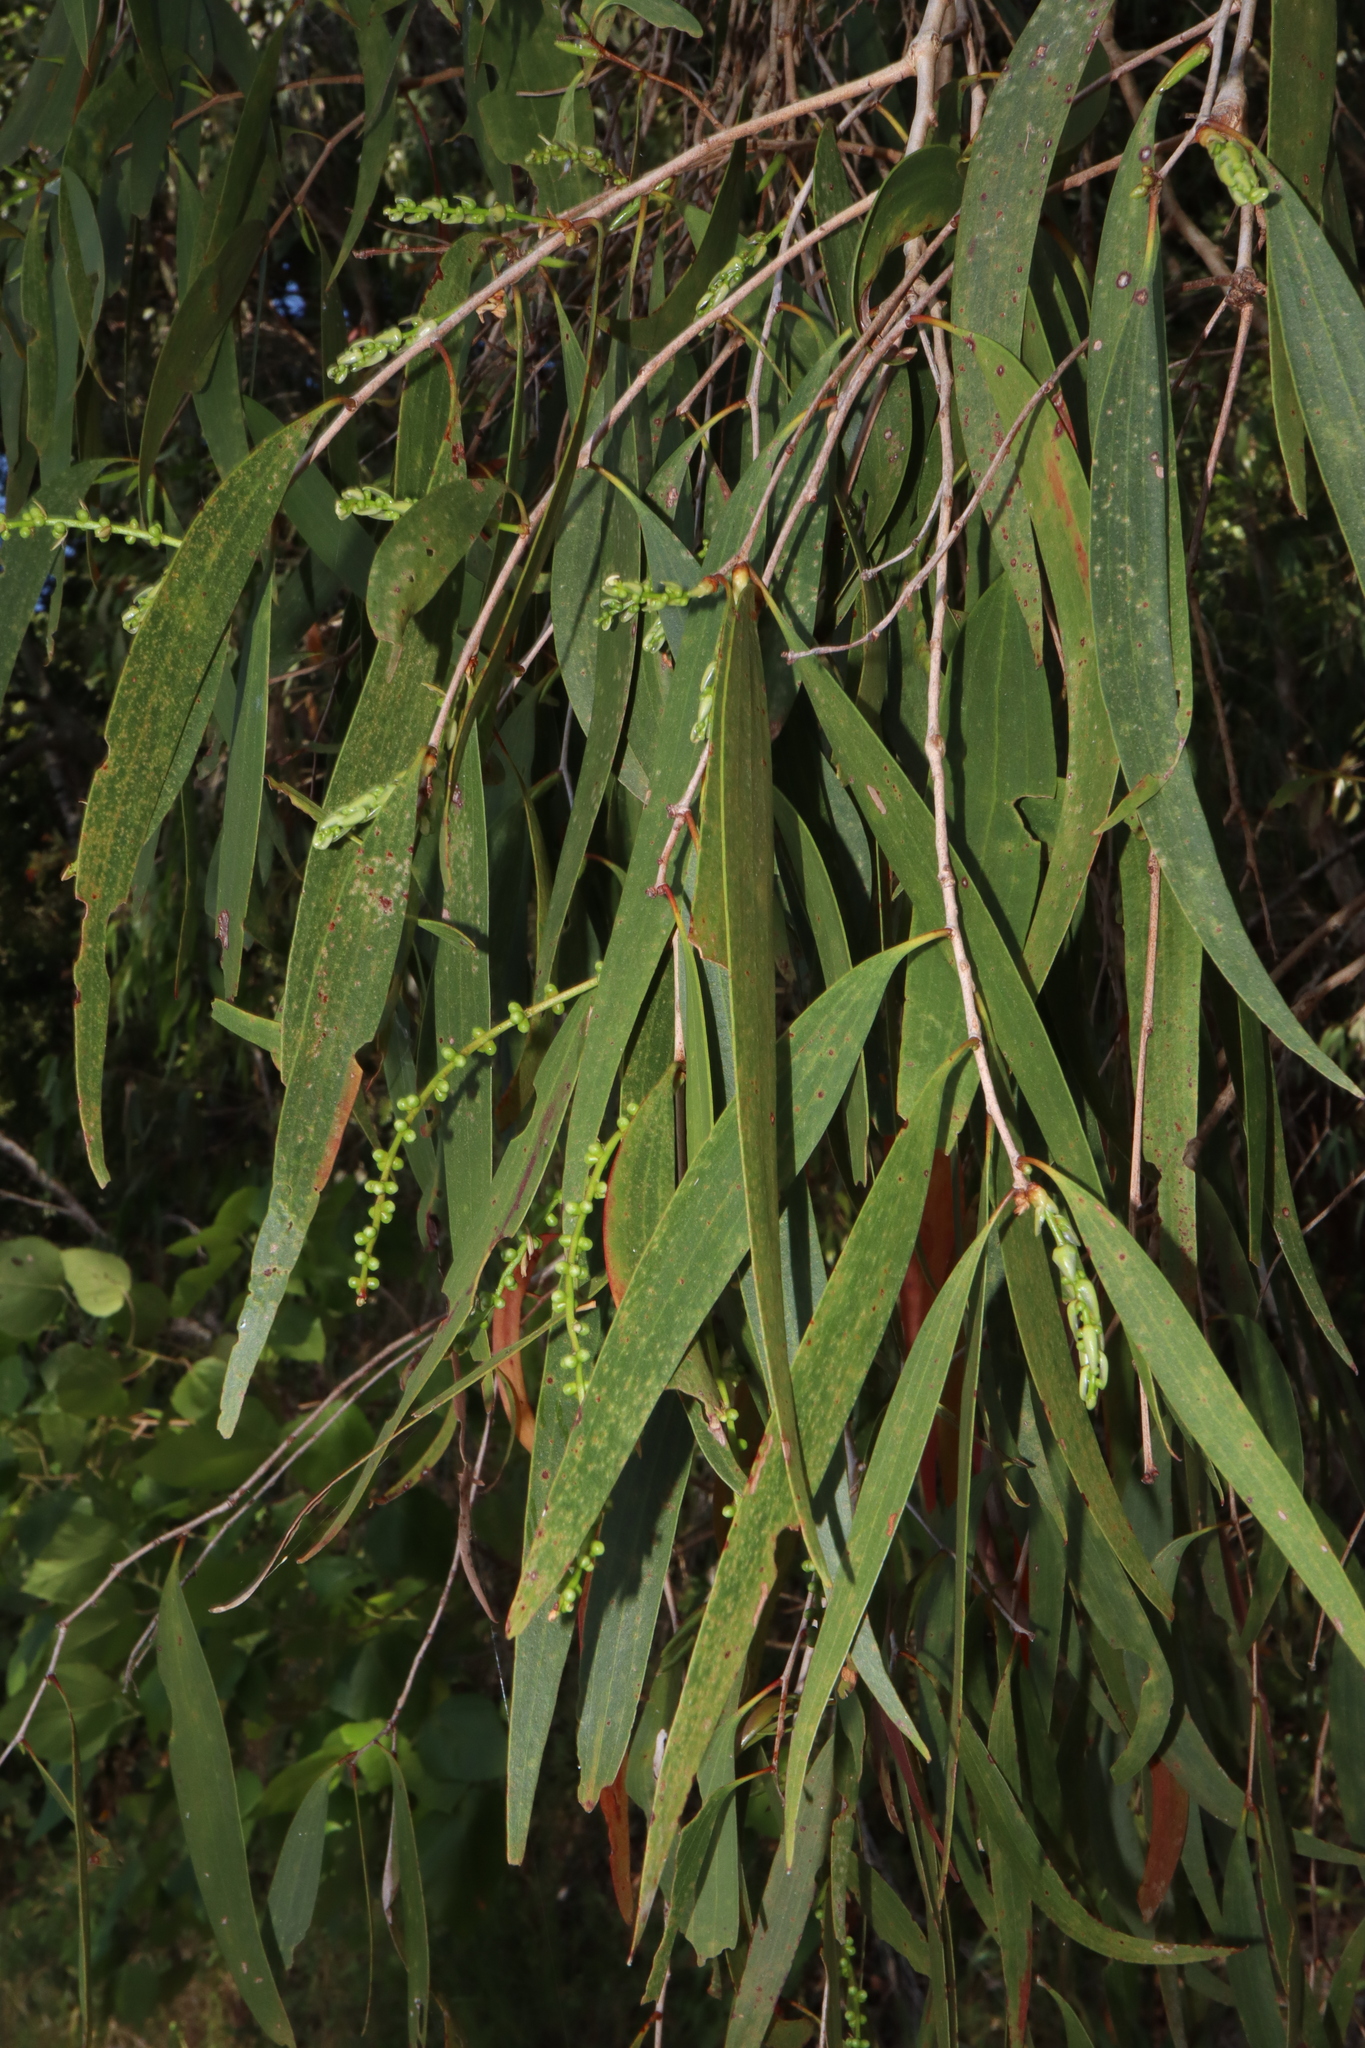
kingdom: Plantae
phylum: Tracheophyta
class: Magnoliopsida
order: Myrtales
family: Myrtaceae
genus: Melaleuca
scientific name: Melaleuca leucadendra
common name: Weeping paperbark
